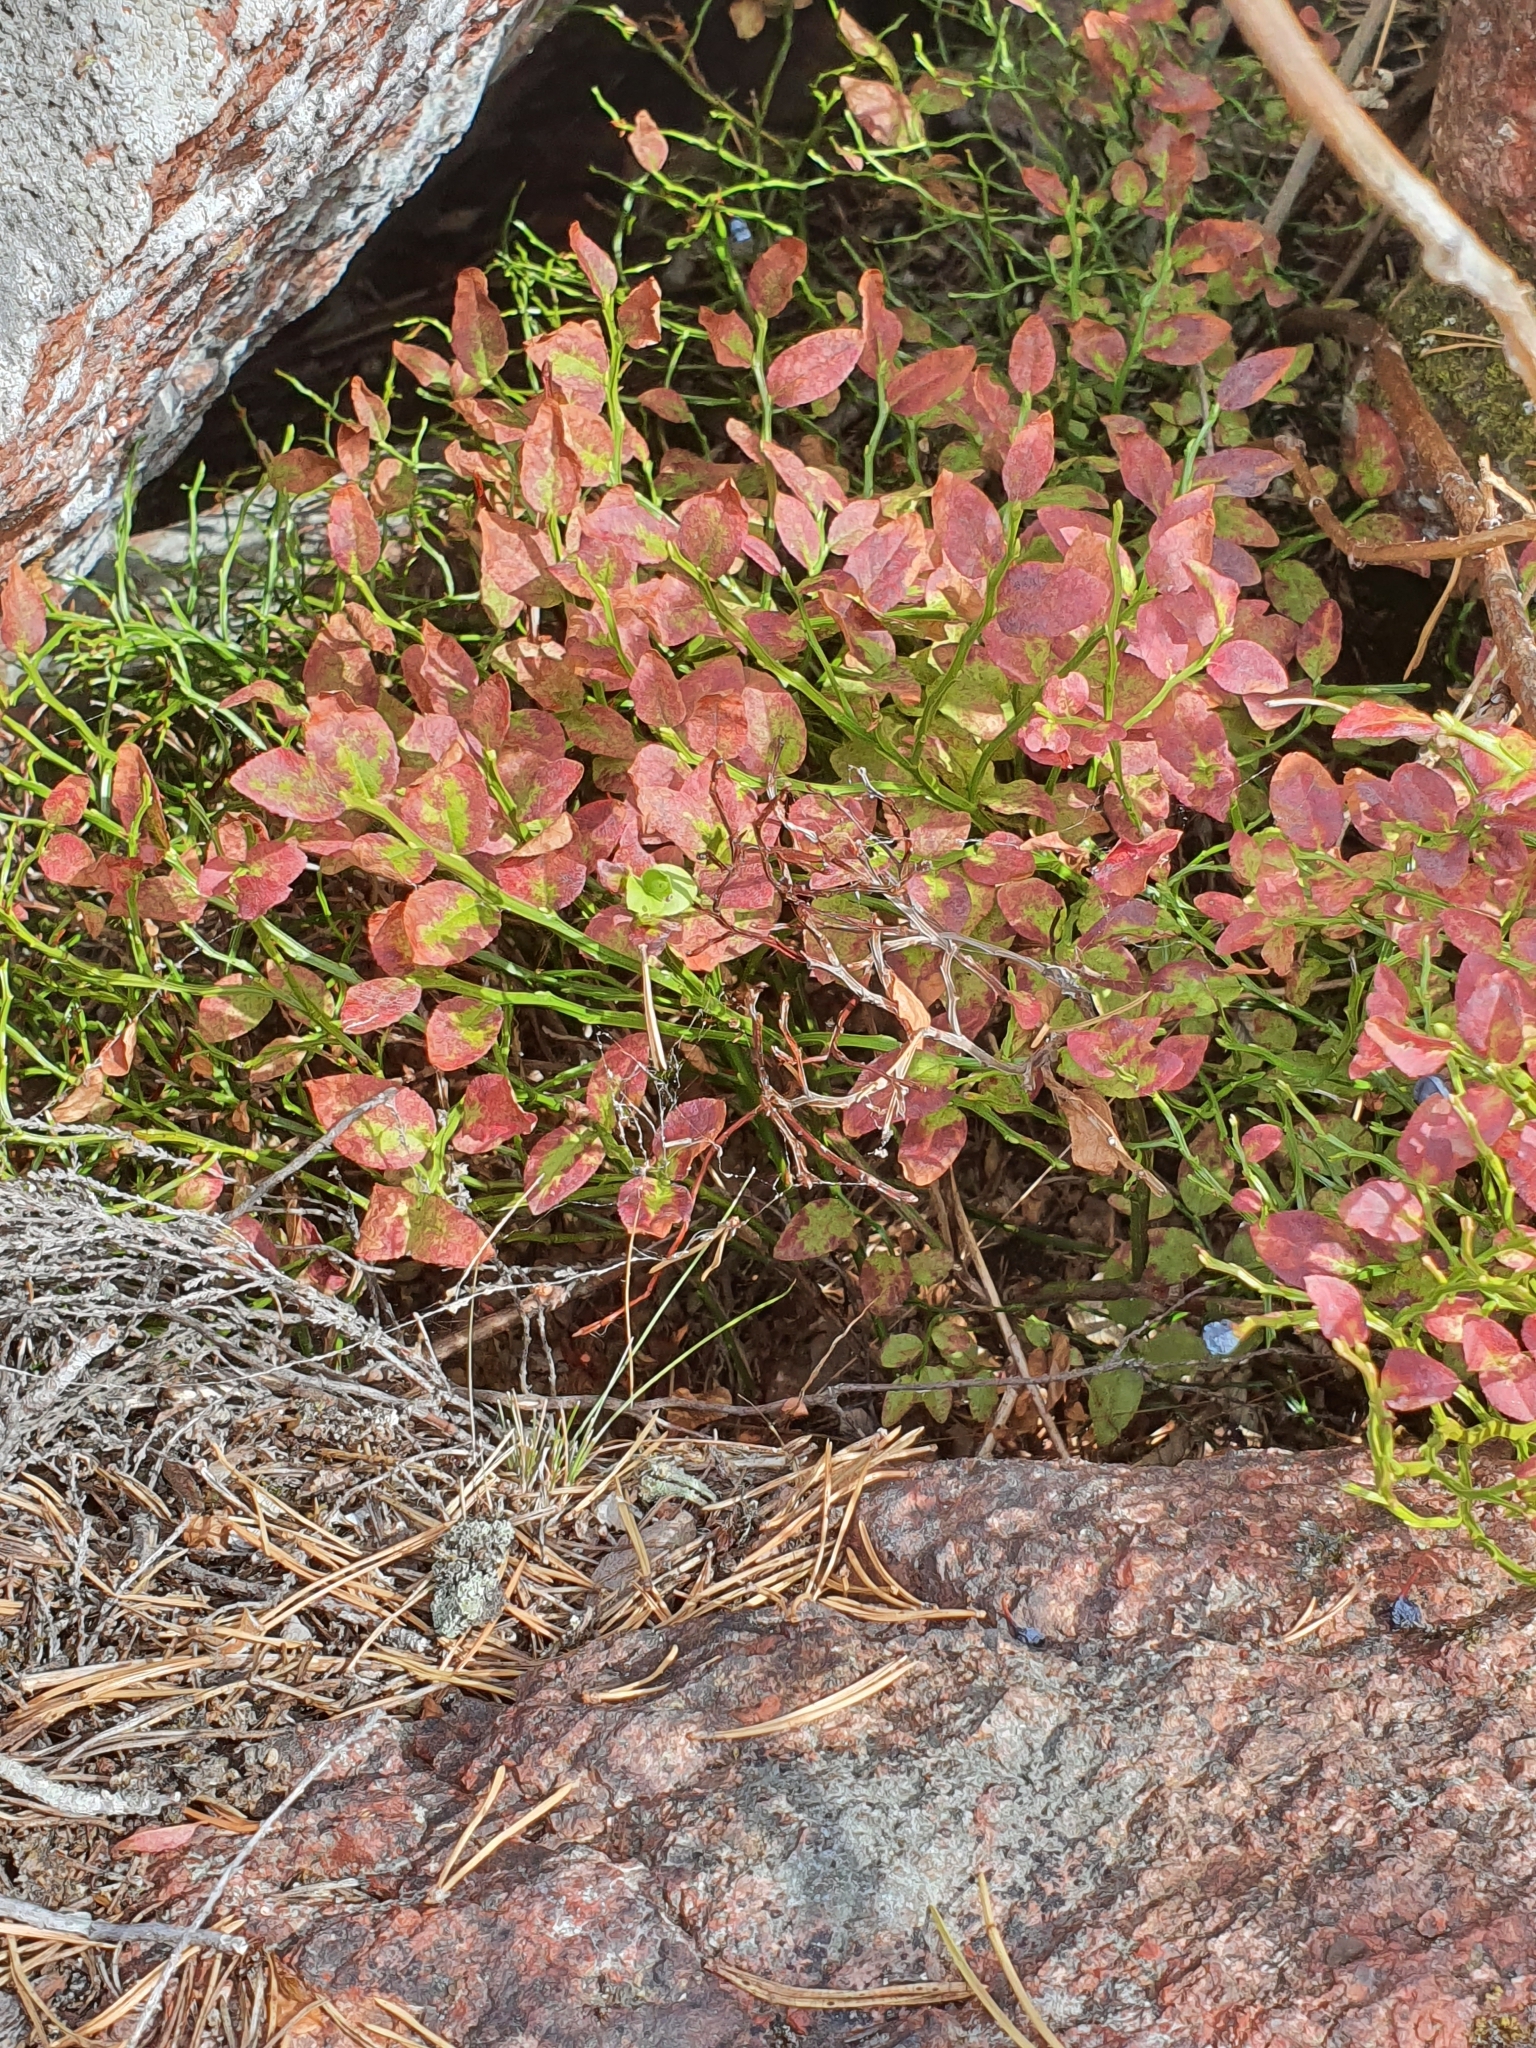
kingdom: Plantae
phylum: Tracheophyta
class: Magnoliopsida
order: Ericales
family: Ericaceae
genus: Vaccinium
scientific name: Vaccinium myrtillus
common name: Bilberry
